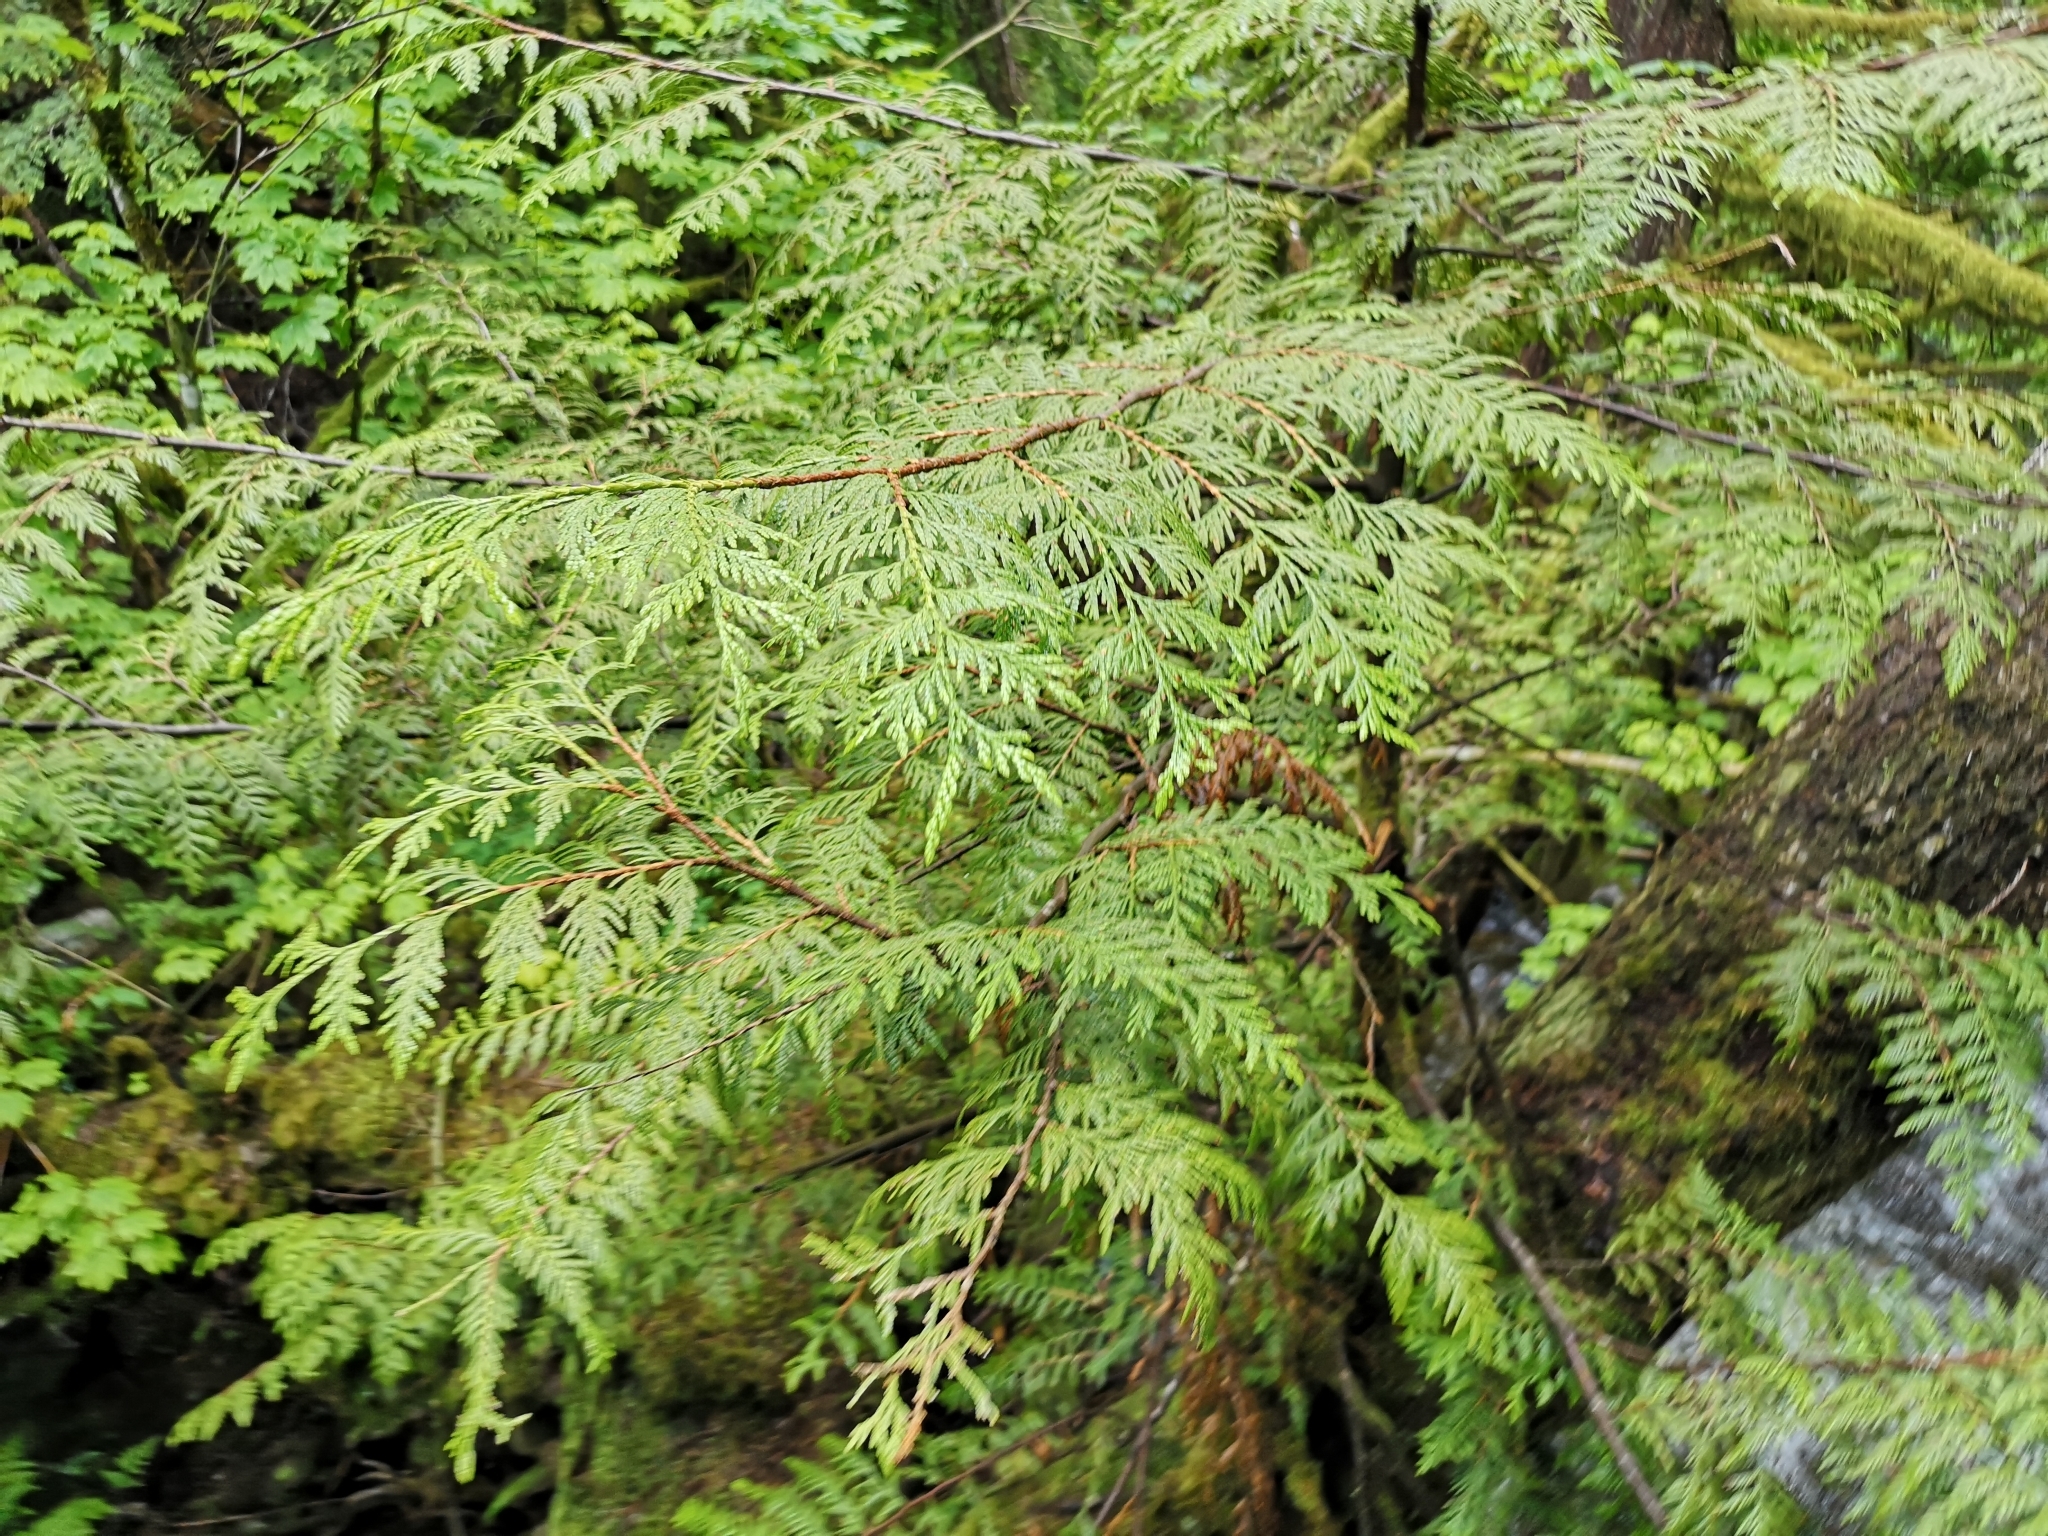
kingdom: Plantae
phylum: Tracheophyta
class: Pinopsida
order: Pinales
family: Cupressaceae
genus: Thuja
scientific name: Thuja plicata
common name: Western red-cedar
